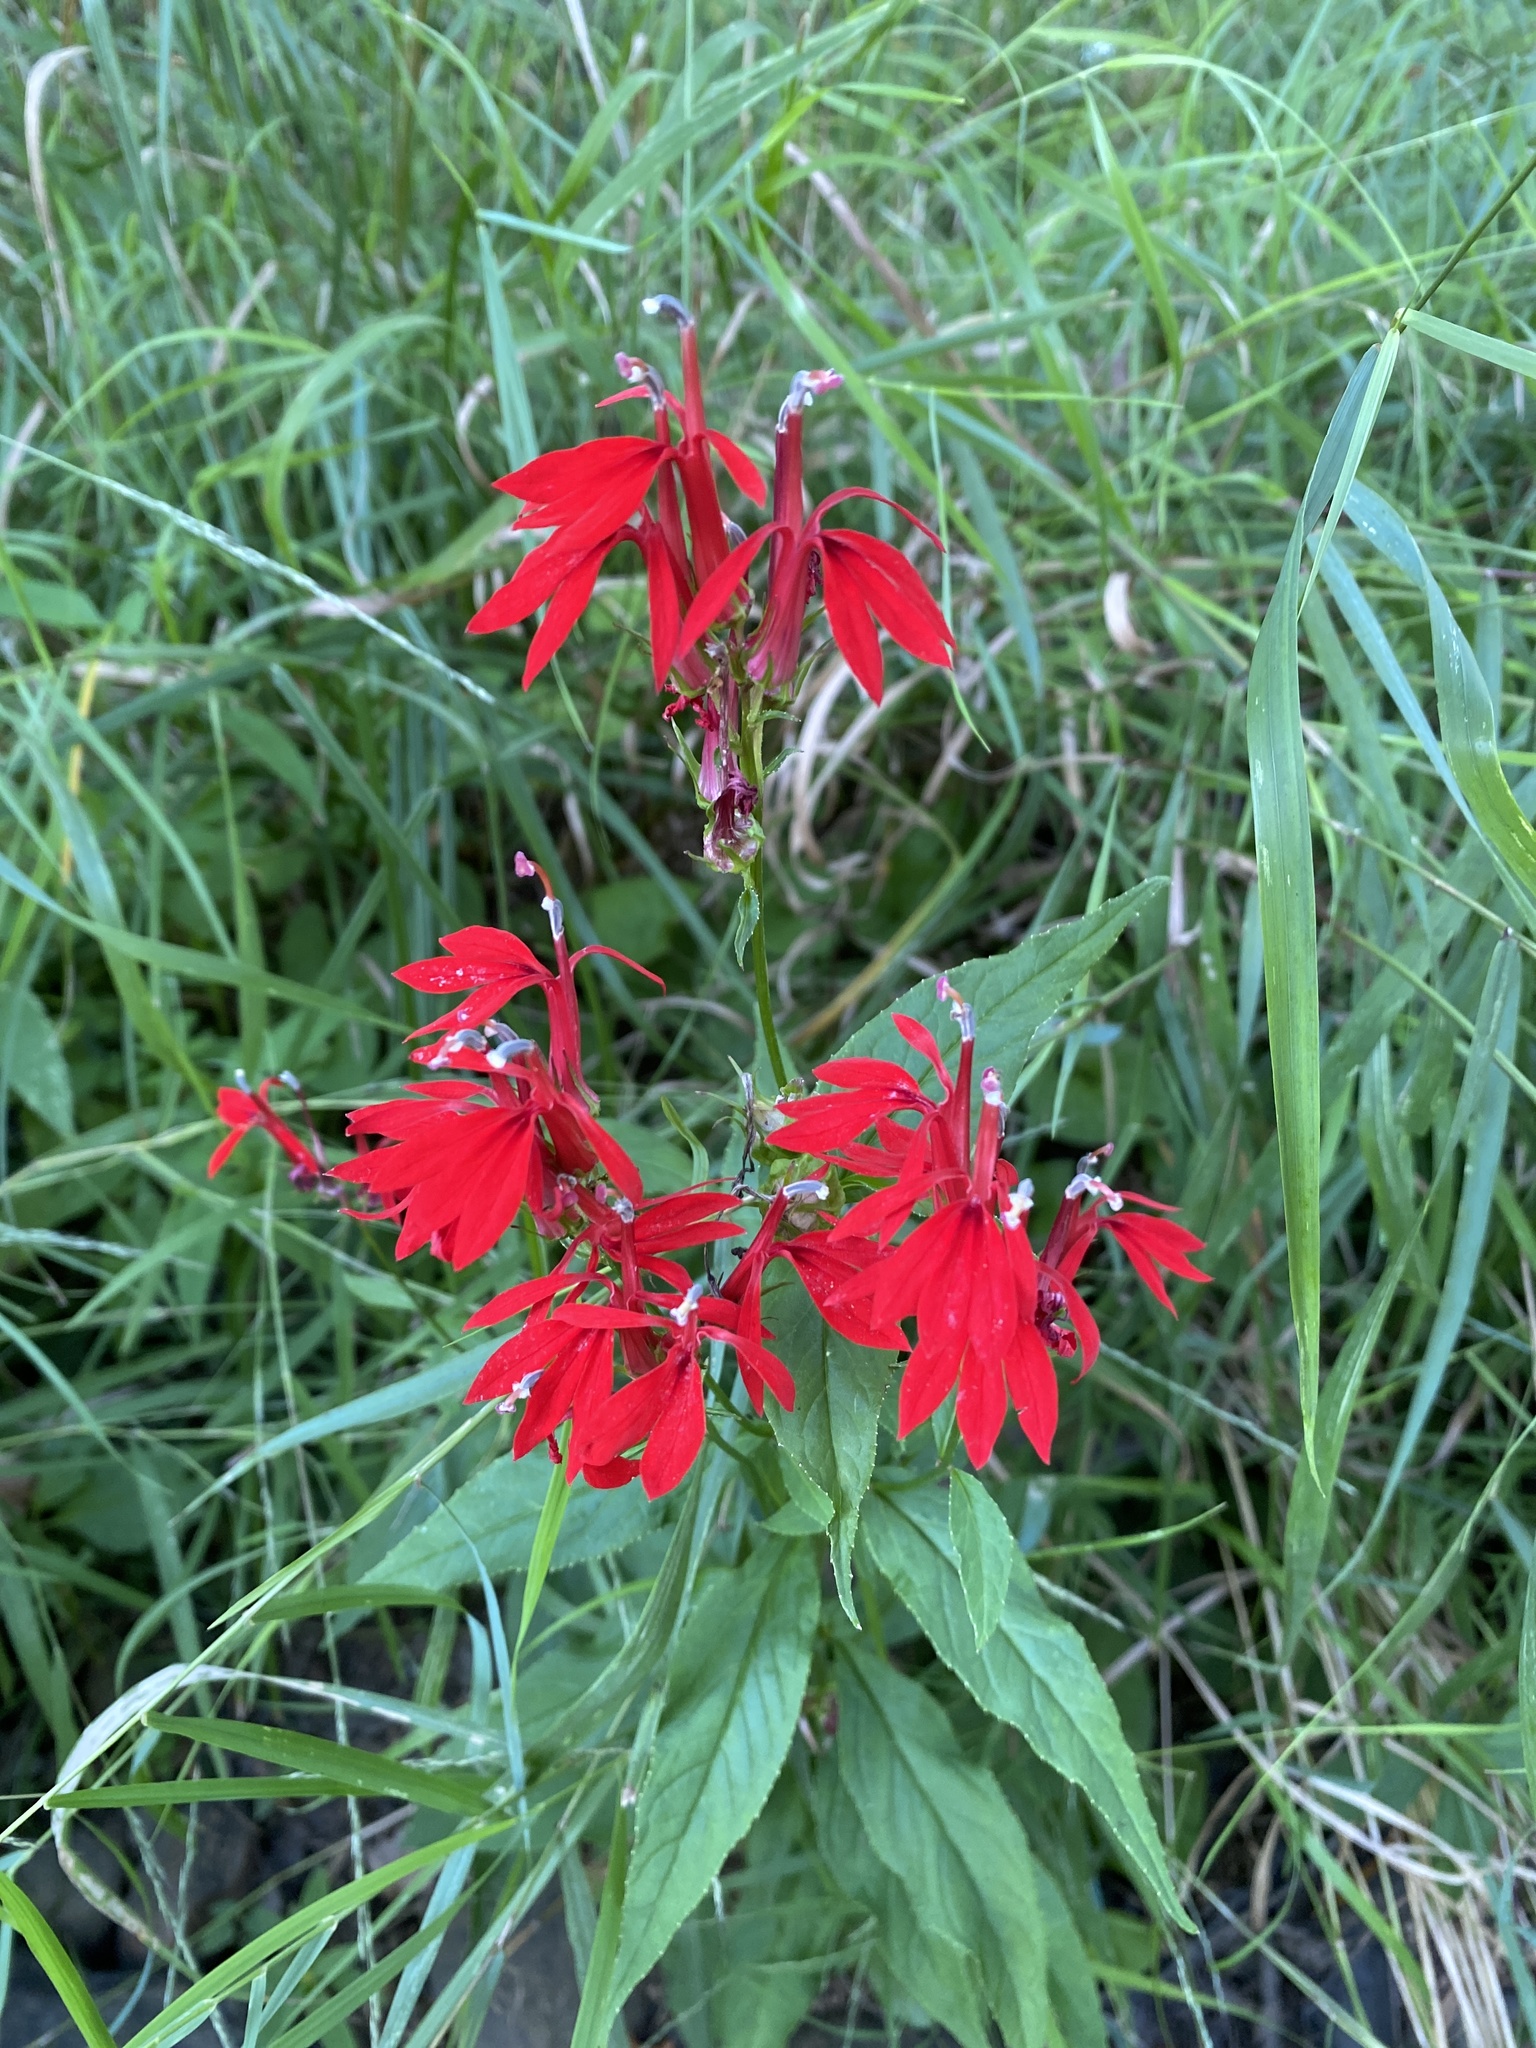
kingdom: Plantae
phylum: Tracheophyta
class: Magnoliopsida
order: Asterales
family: Campanulaceae
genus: Lobelia
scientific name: Lobelia cardinalis
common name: Cardinal flower
